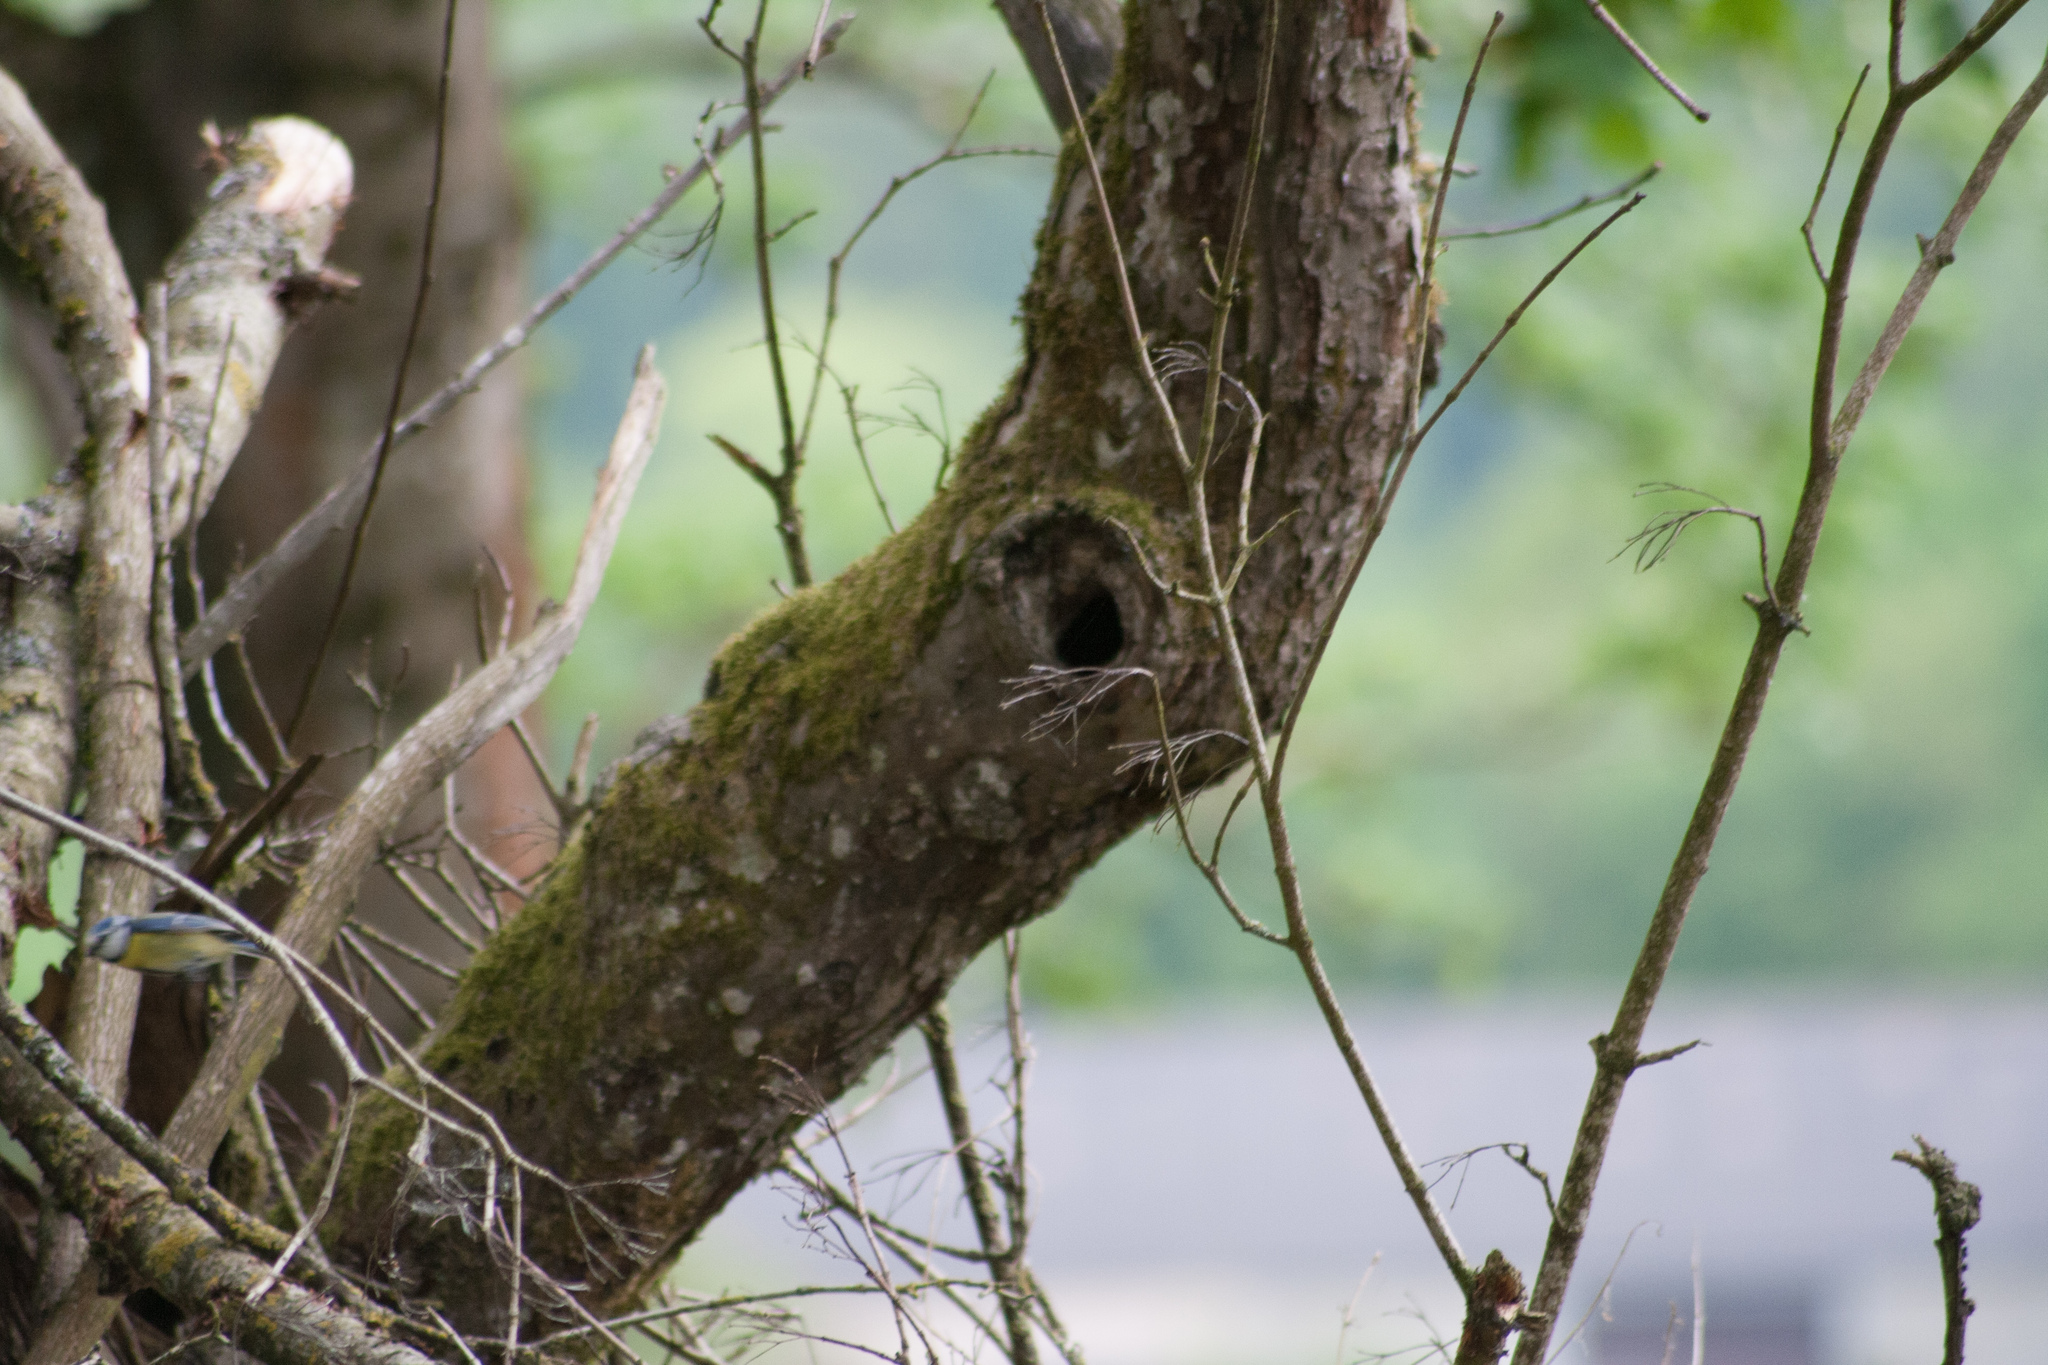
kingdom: Animalia
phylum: Chordata
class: Aves
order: Passeriformes
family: Paridae
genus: Cyanistes
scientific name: Cyanistes caeruleus
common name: Eurasian blue tit
